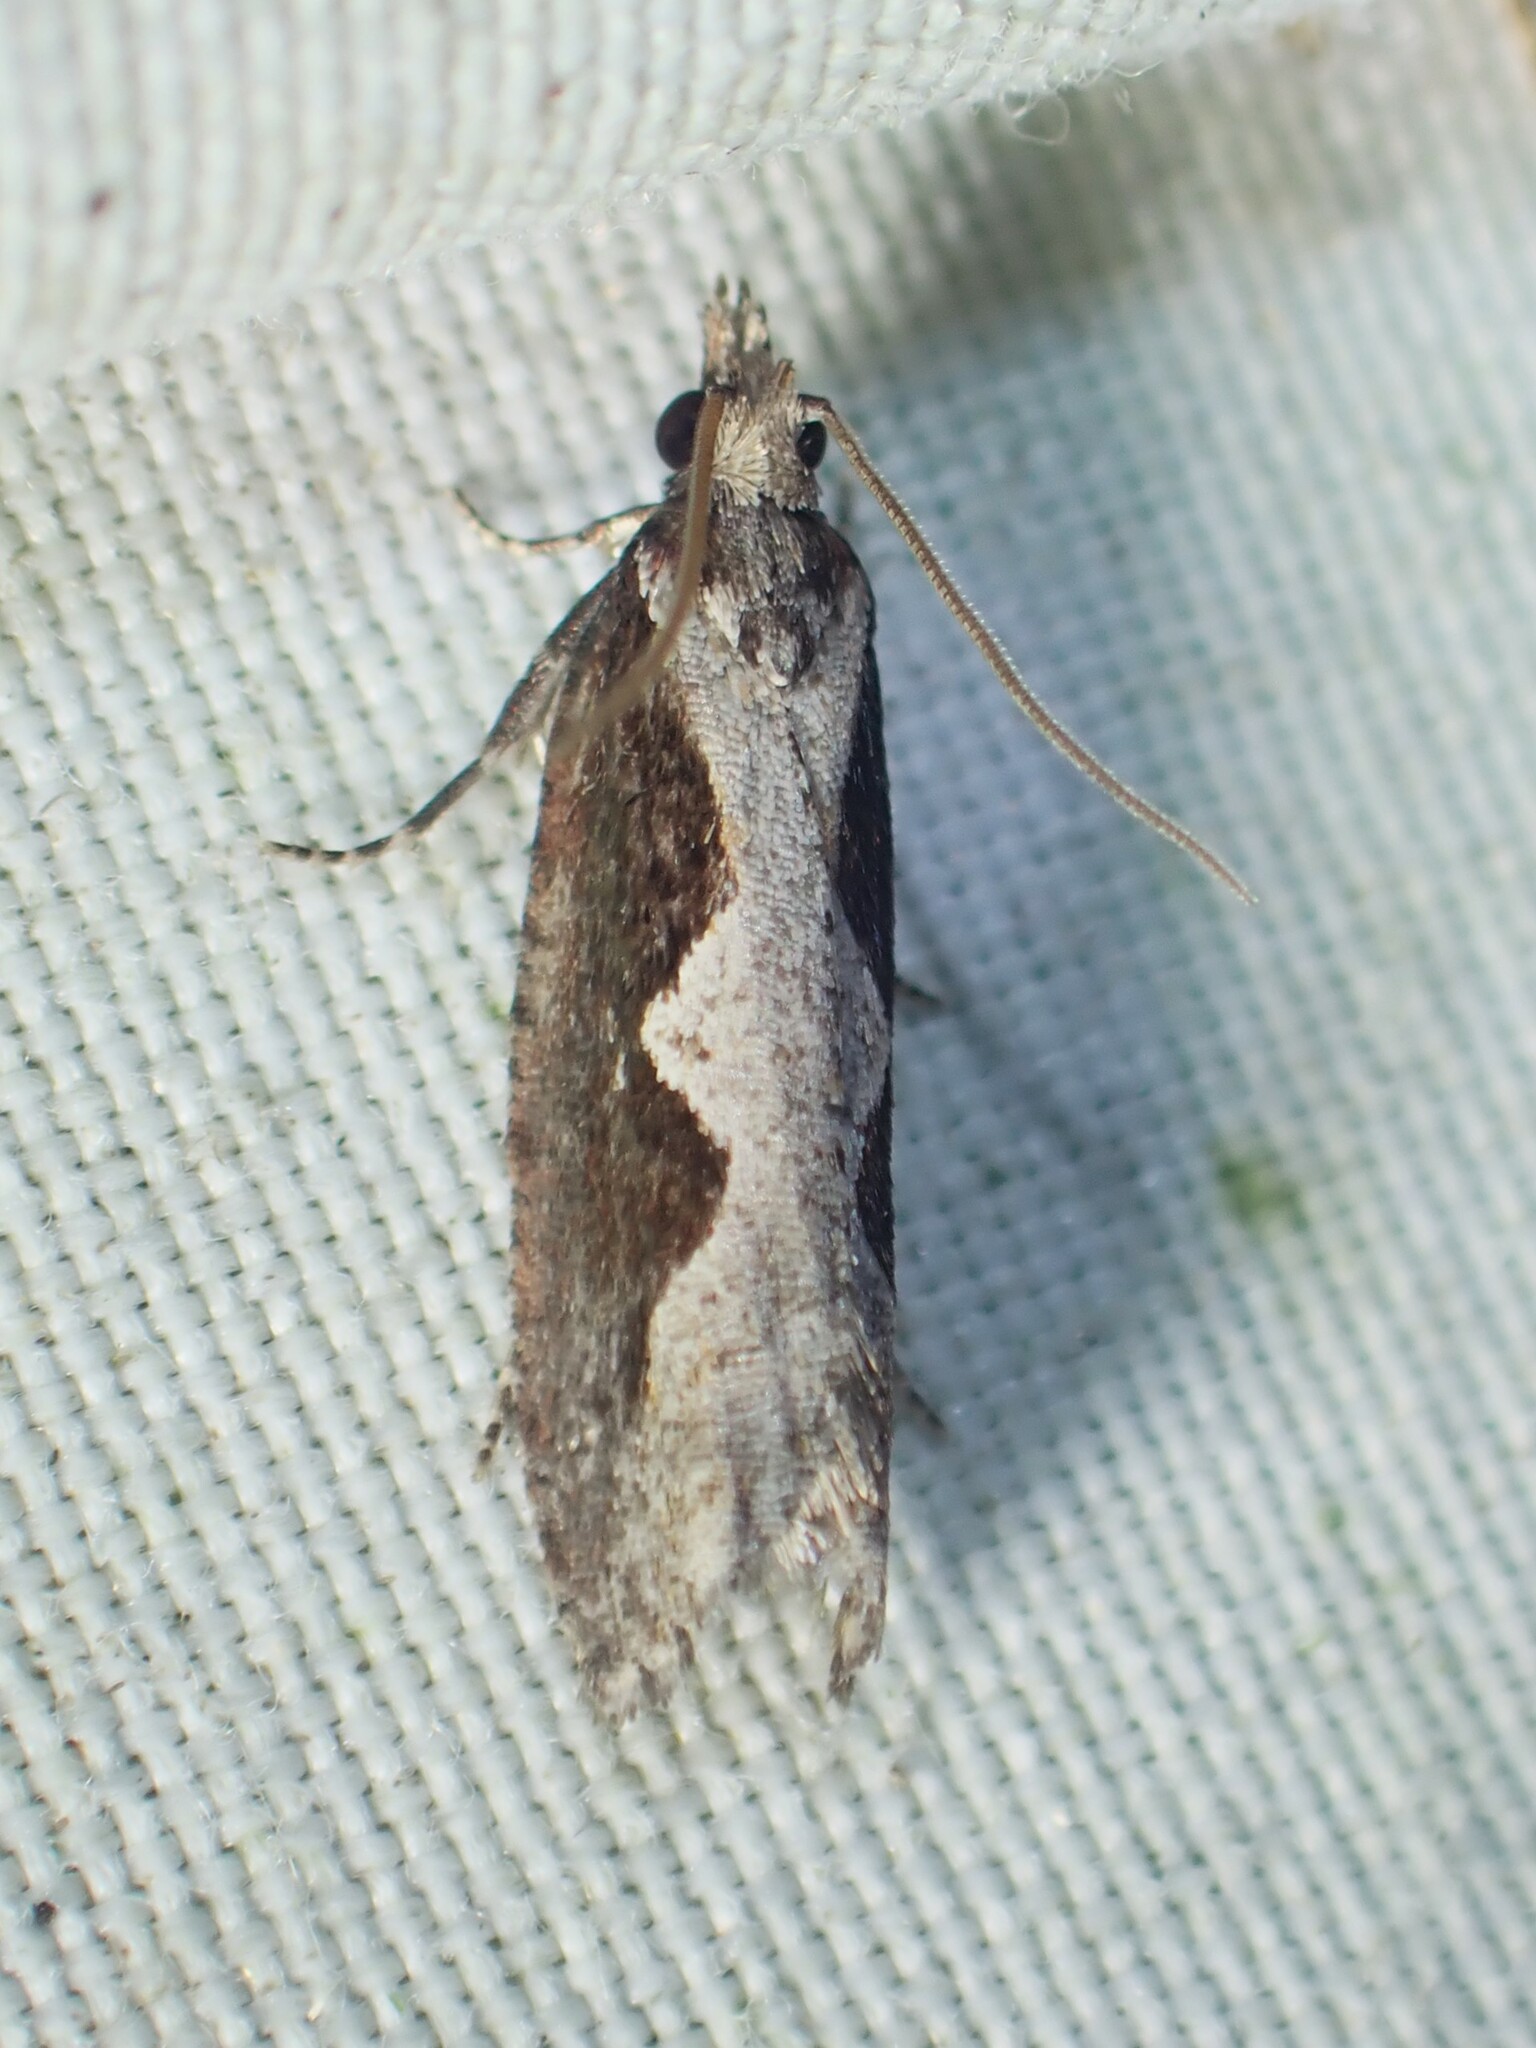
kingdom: Animalia
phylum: Arthropoda
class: Insecta
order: Lepidoptera
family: Tortricidae
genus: Epinotia
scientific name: Epinotia lindana
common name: Diamondback epinotia moth
